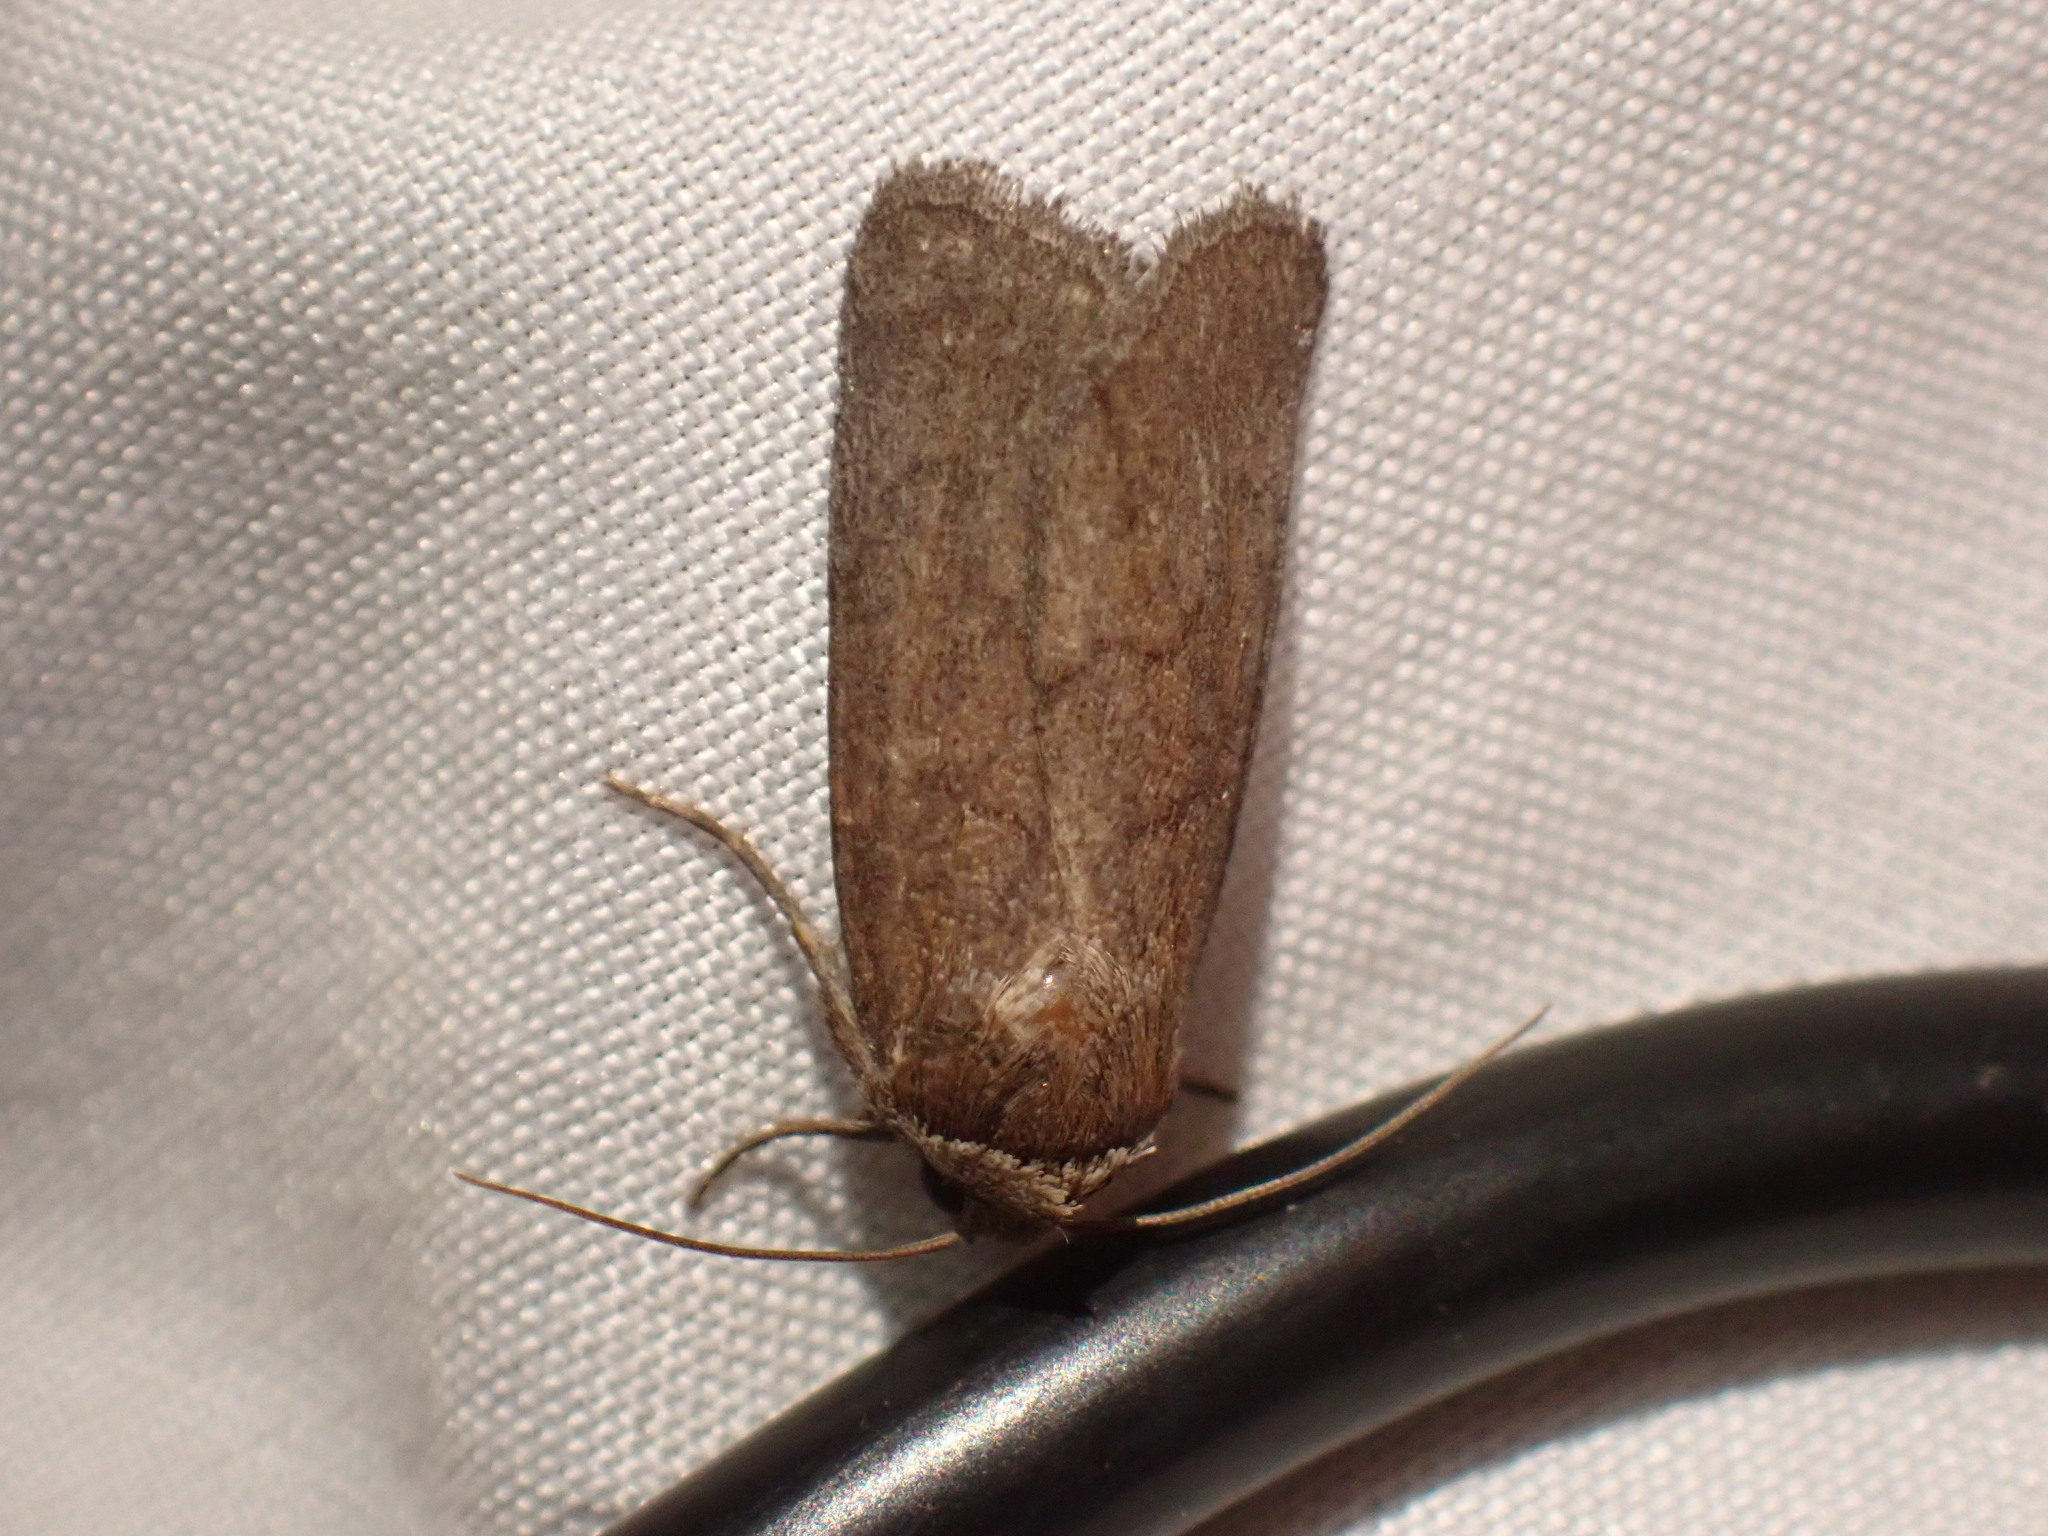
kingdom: Animalia
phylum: Arthropoda
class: Insecta
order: Lepidoptera
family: Noctuidae
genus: Sympistis
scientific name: Sympistis stabilis
